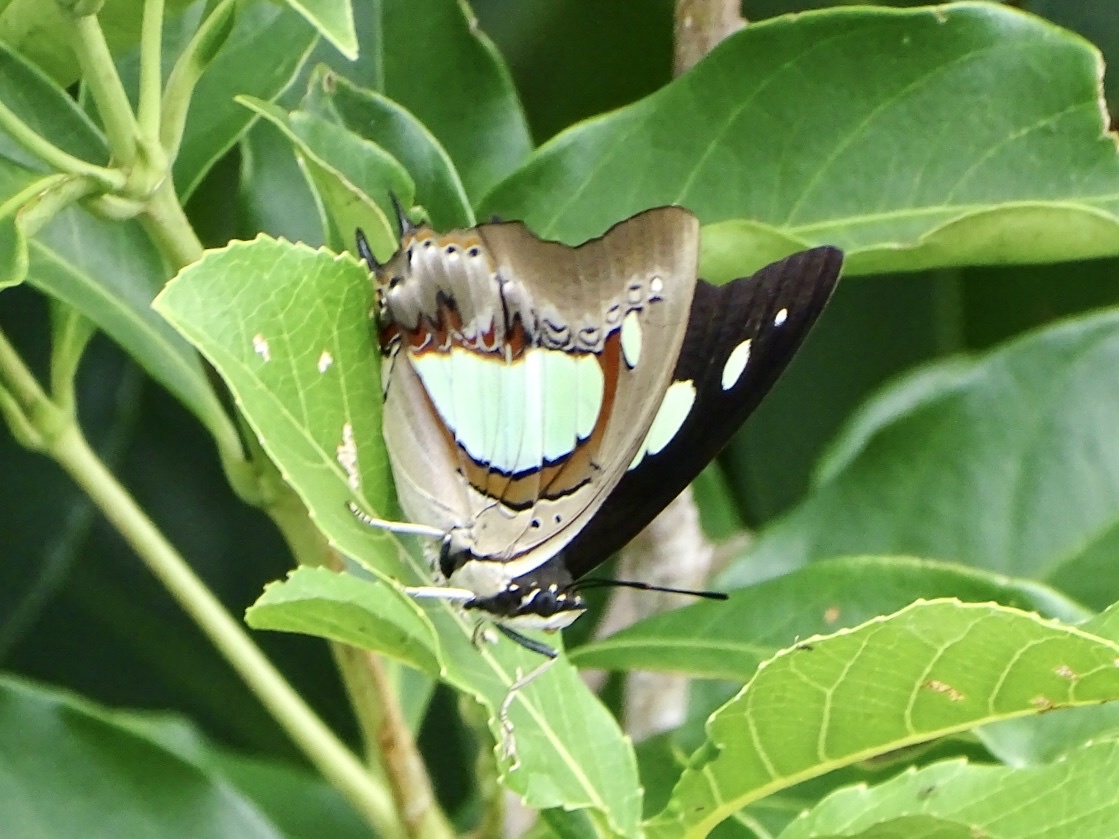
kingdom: Animalia
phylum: Arthropoda
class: Insecta
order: Lepidoptera
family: Nymphalidae
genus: Polyura
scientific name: Polyura athamas
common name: Common nawab
